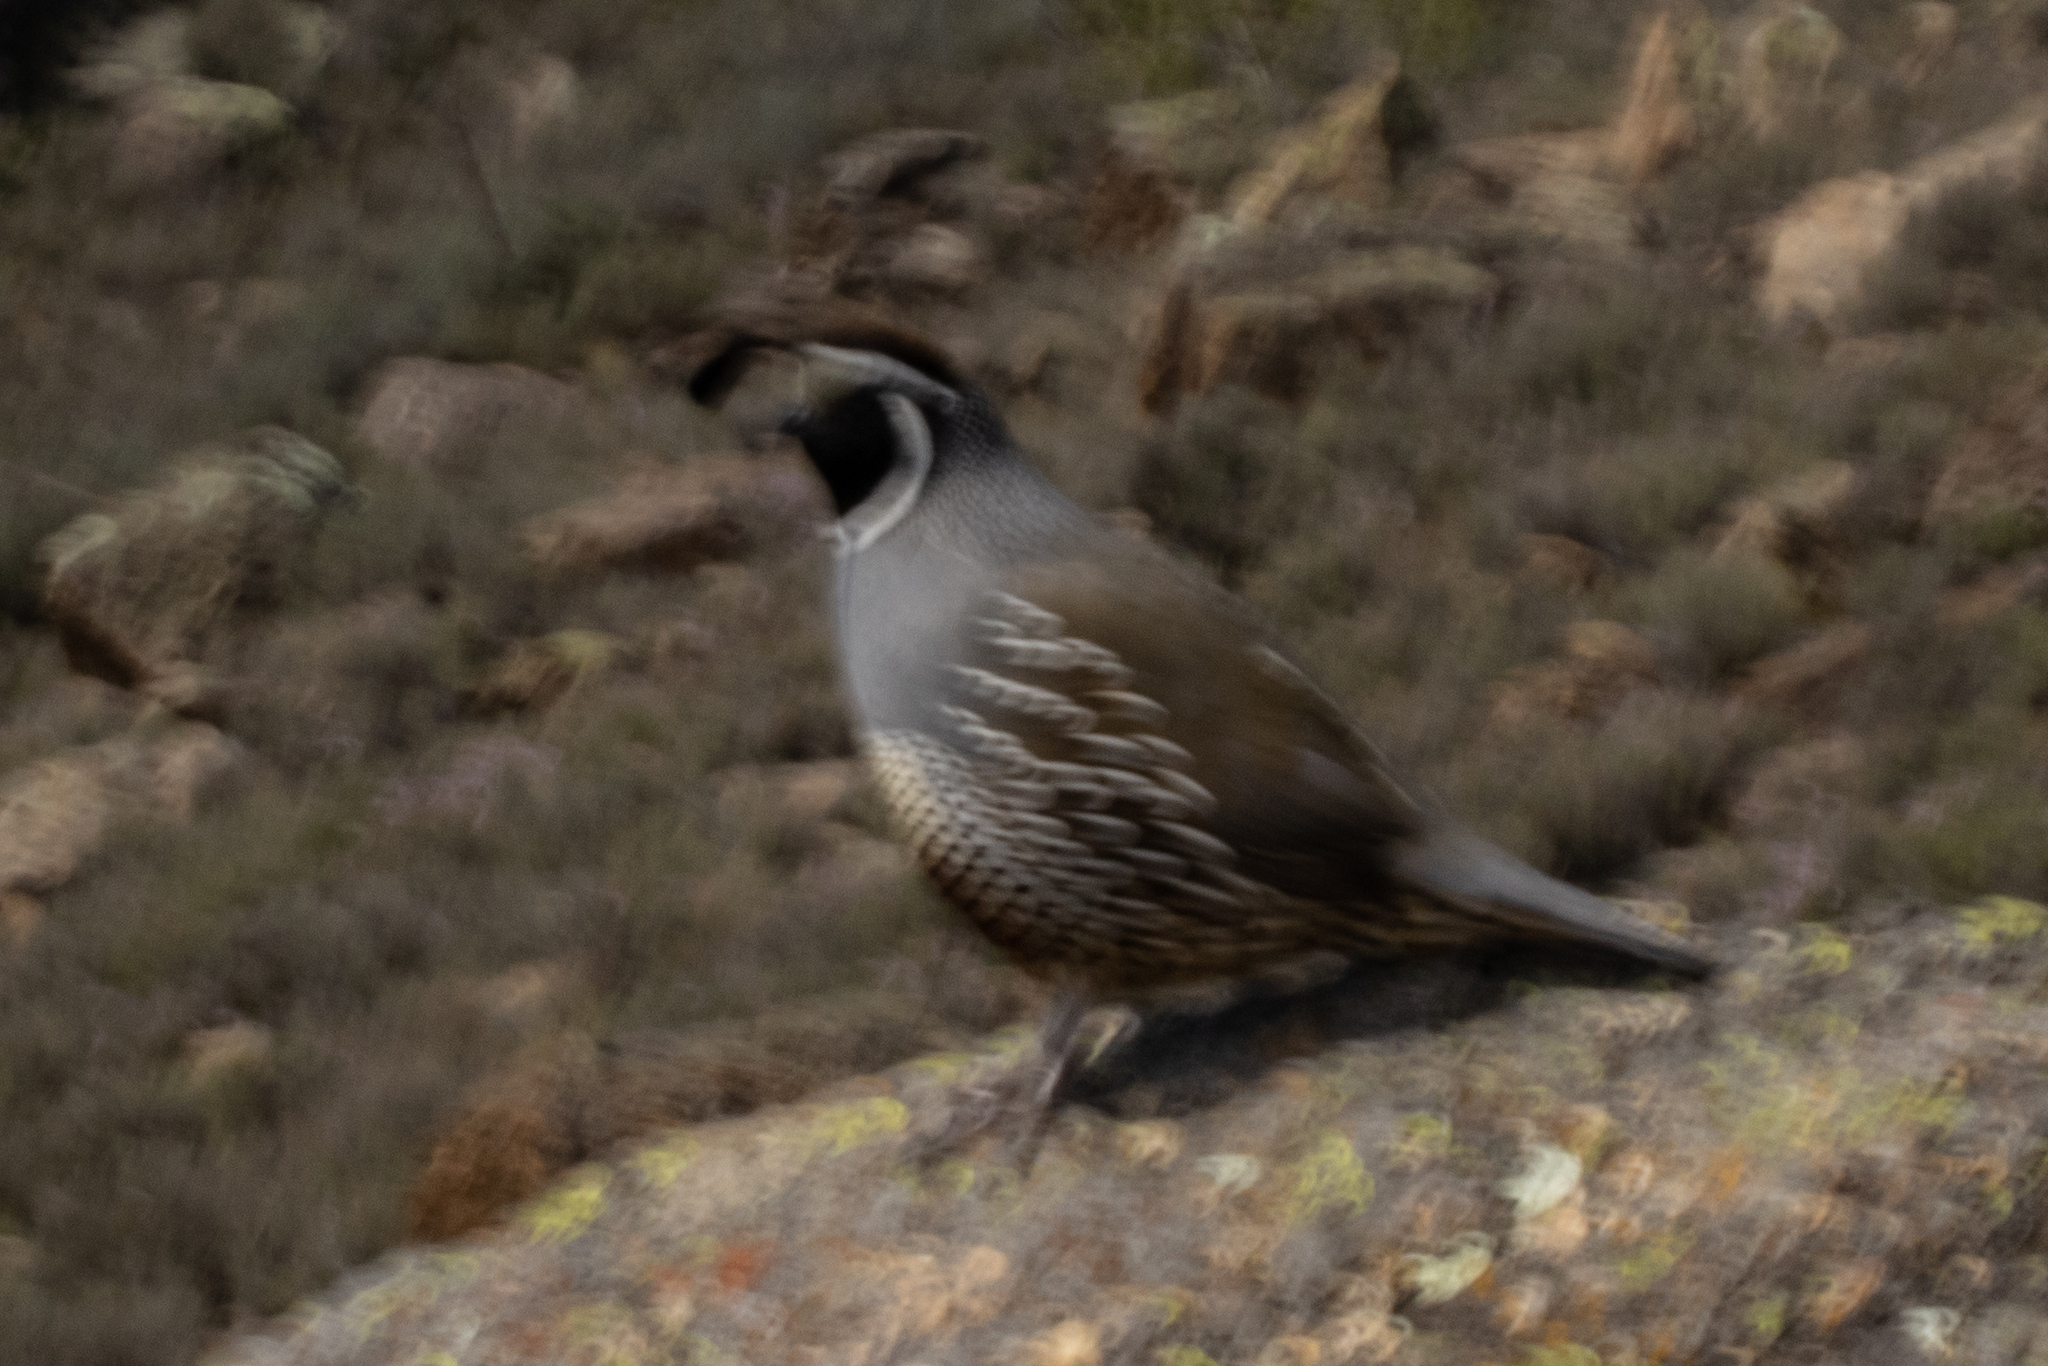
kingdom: Animalia
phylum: Chordata
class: Aves
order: Galliformes
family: Odontophoridae
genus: Callipepla
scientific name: Callipepla californica
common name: California quail
